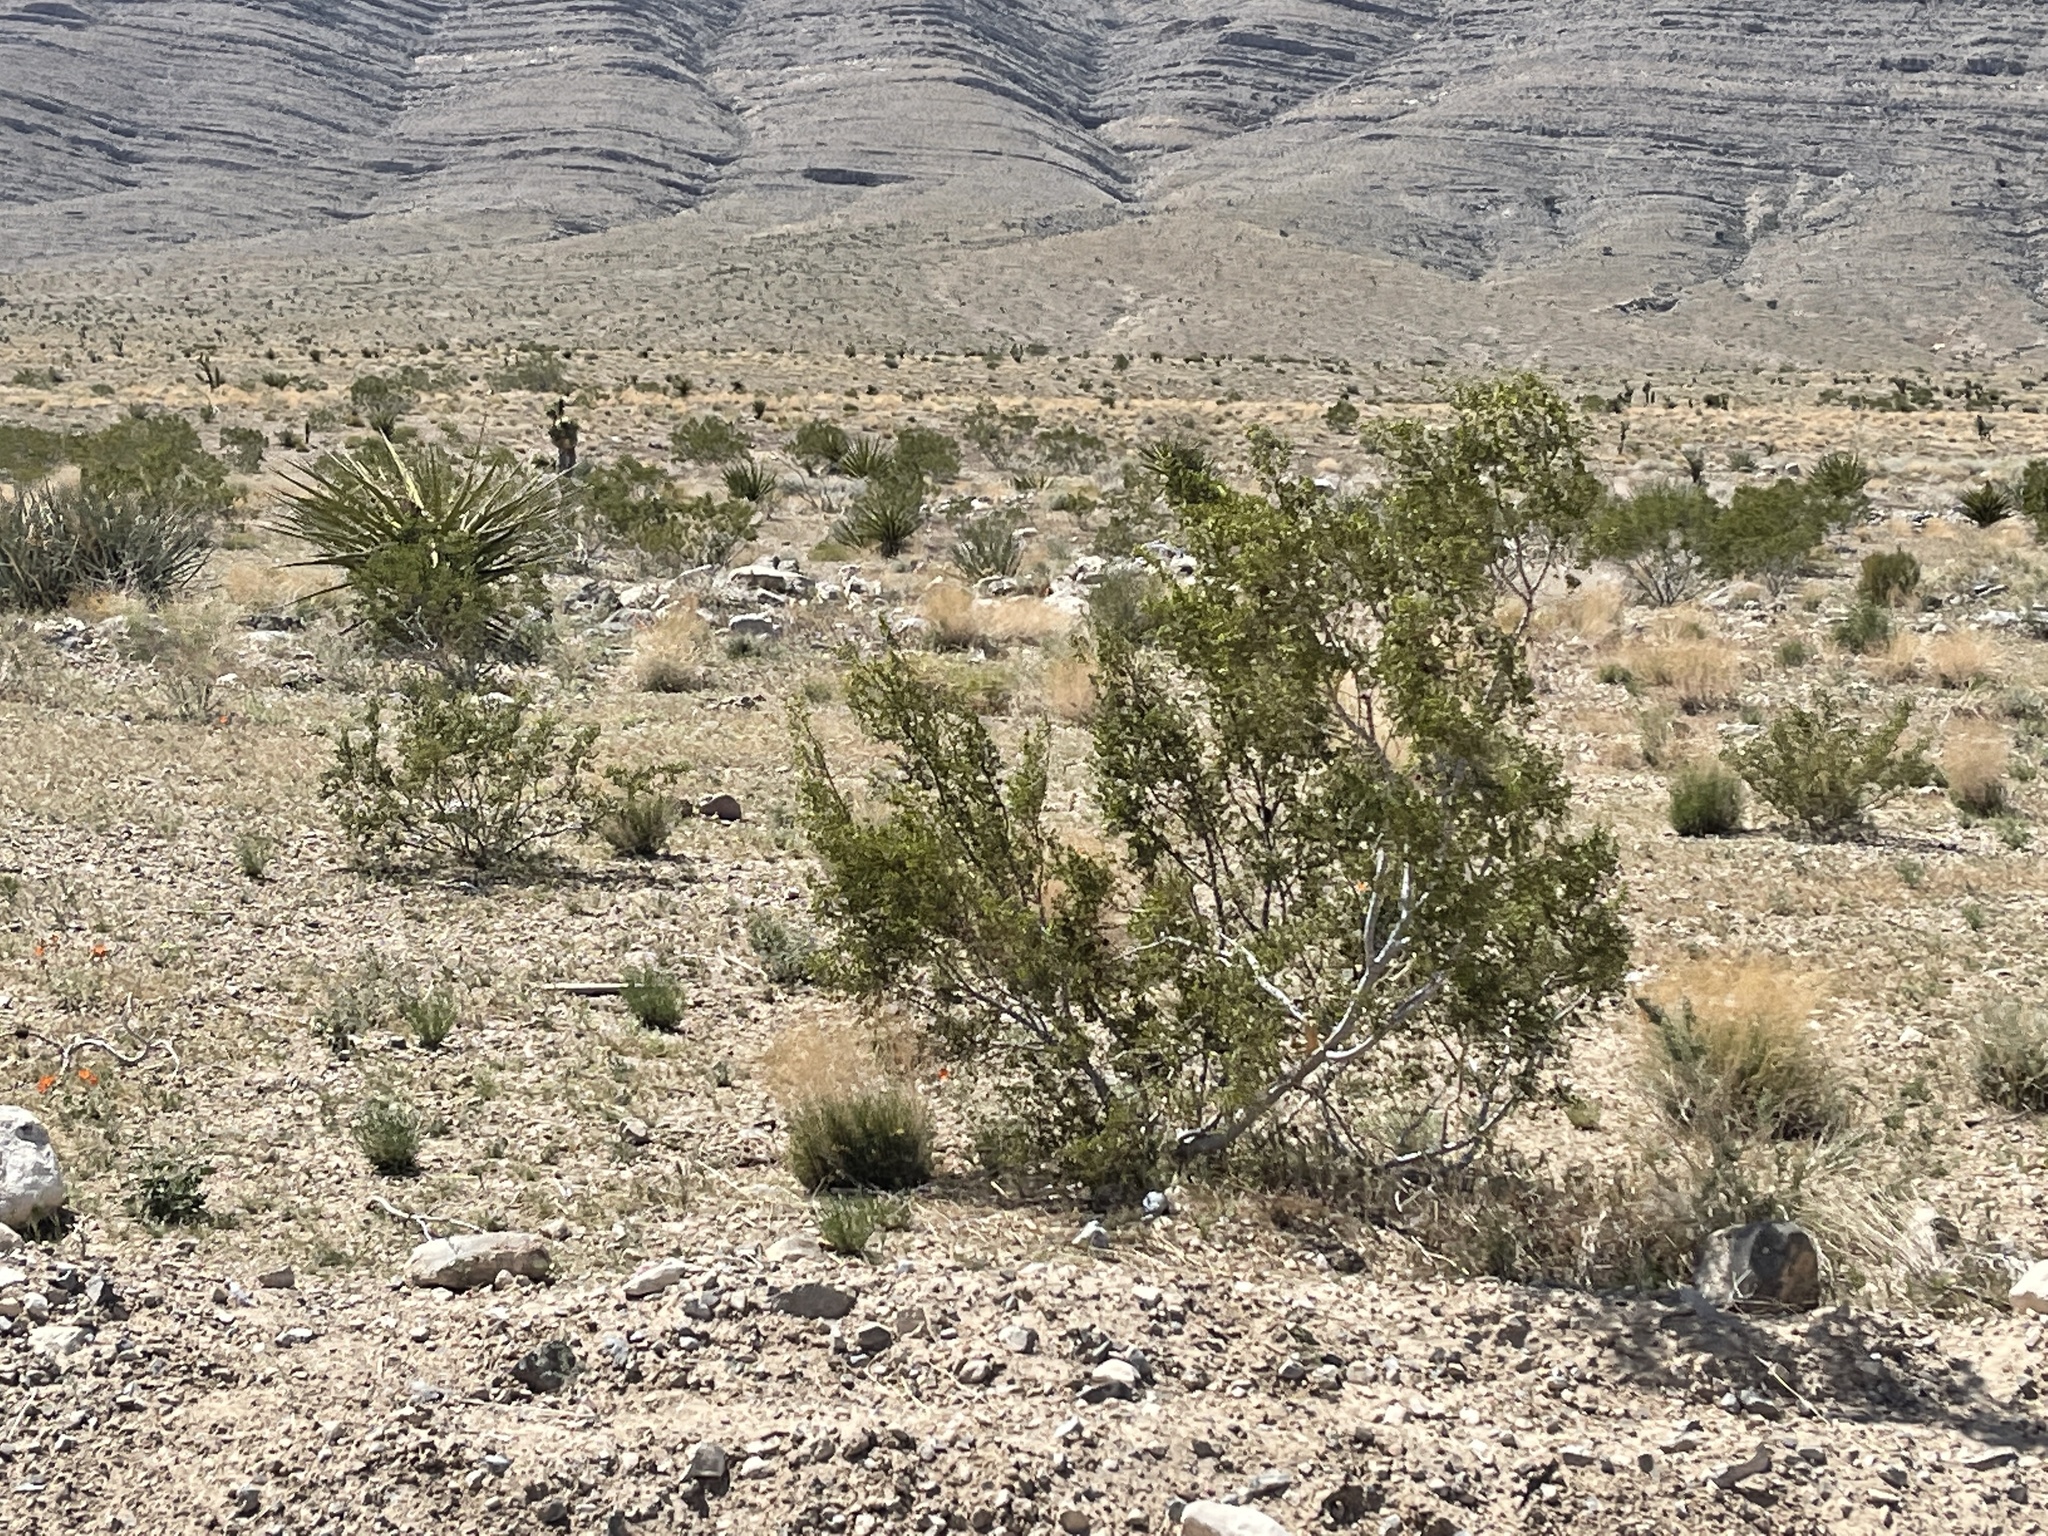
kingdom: Plantae
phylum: Tracheophyta
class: Magnoliopsida
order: Zygophyllales
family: Zygophyllaceae
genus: Larrea
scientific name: Larrea tridentata
